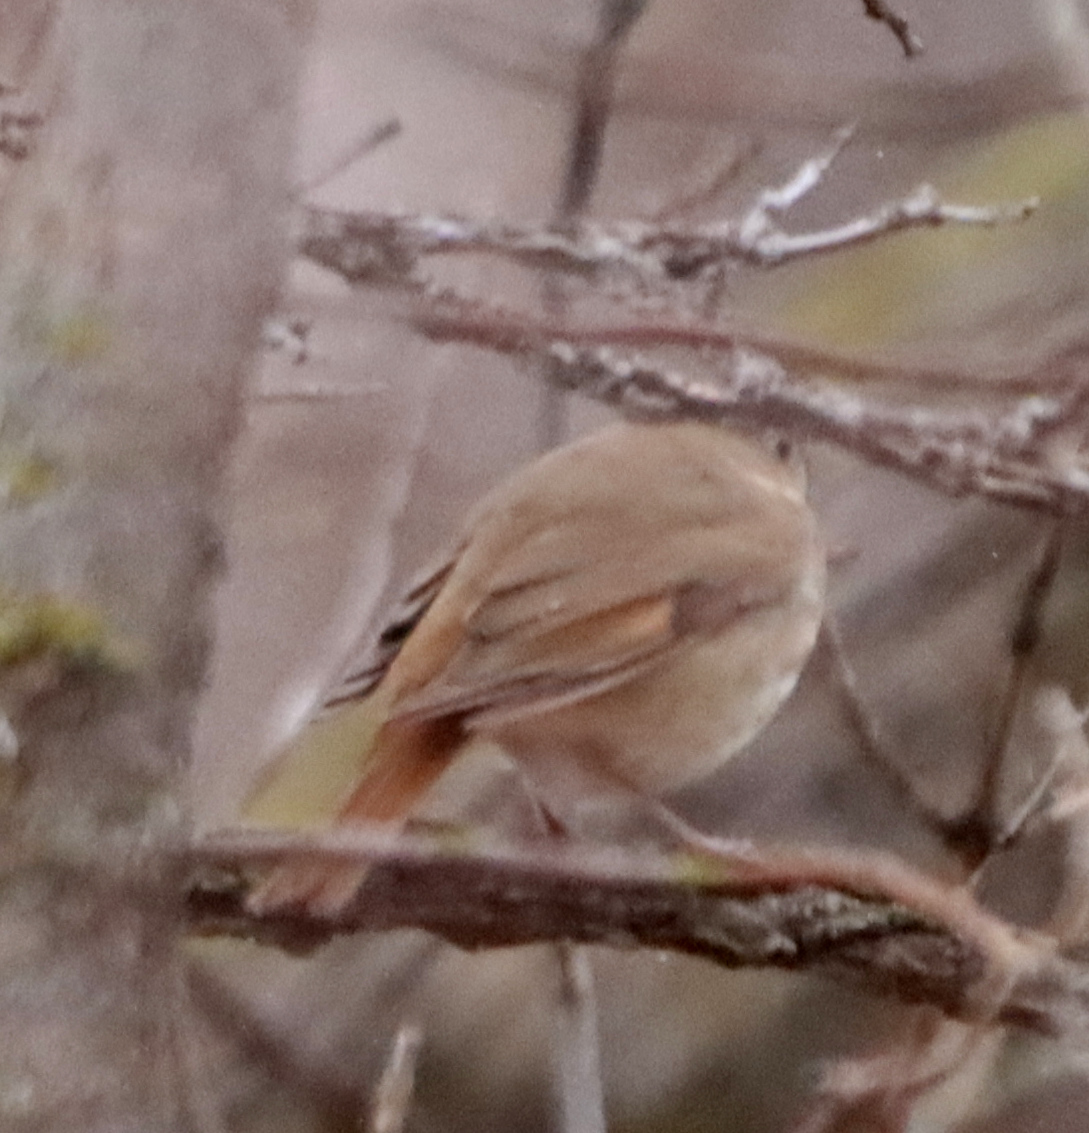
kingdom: Animalia
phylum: Chordata
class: Aves
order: Passeriformes
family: Turdidae
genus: Catharus
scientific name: Catharus guttatus
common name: Hermit thrush
